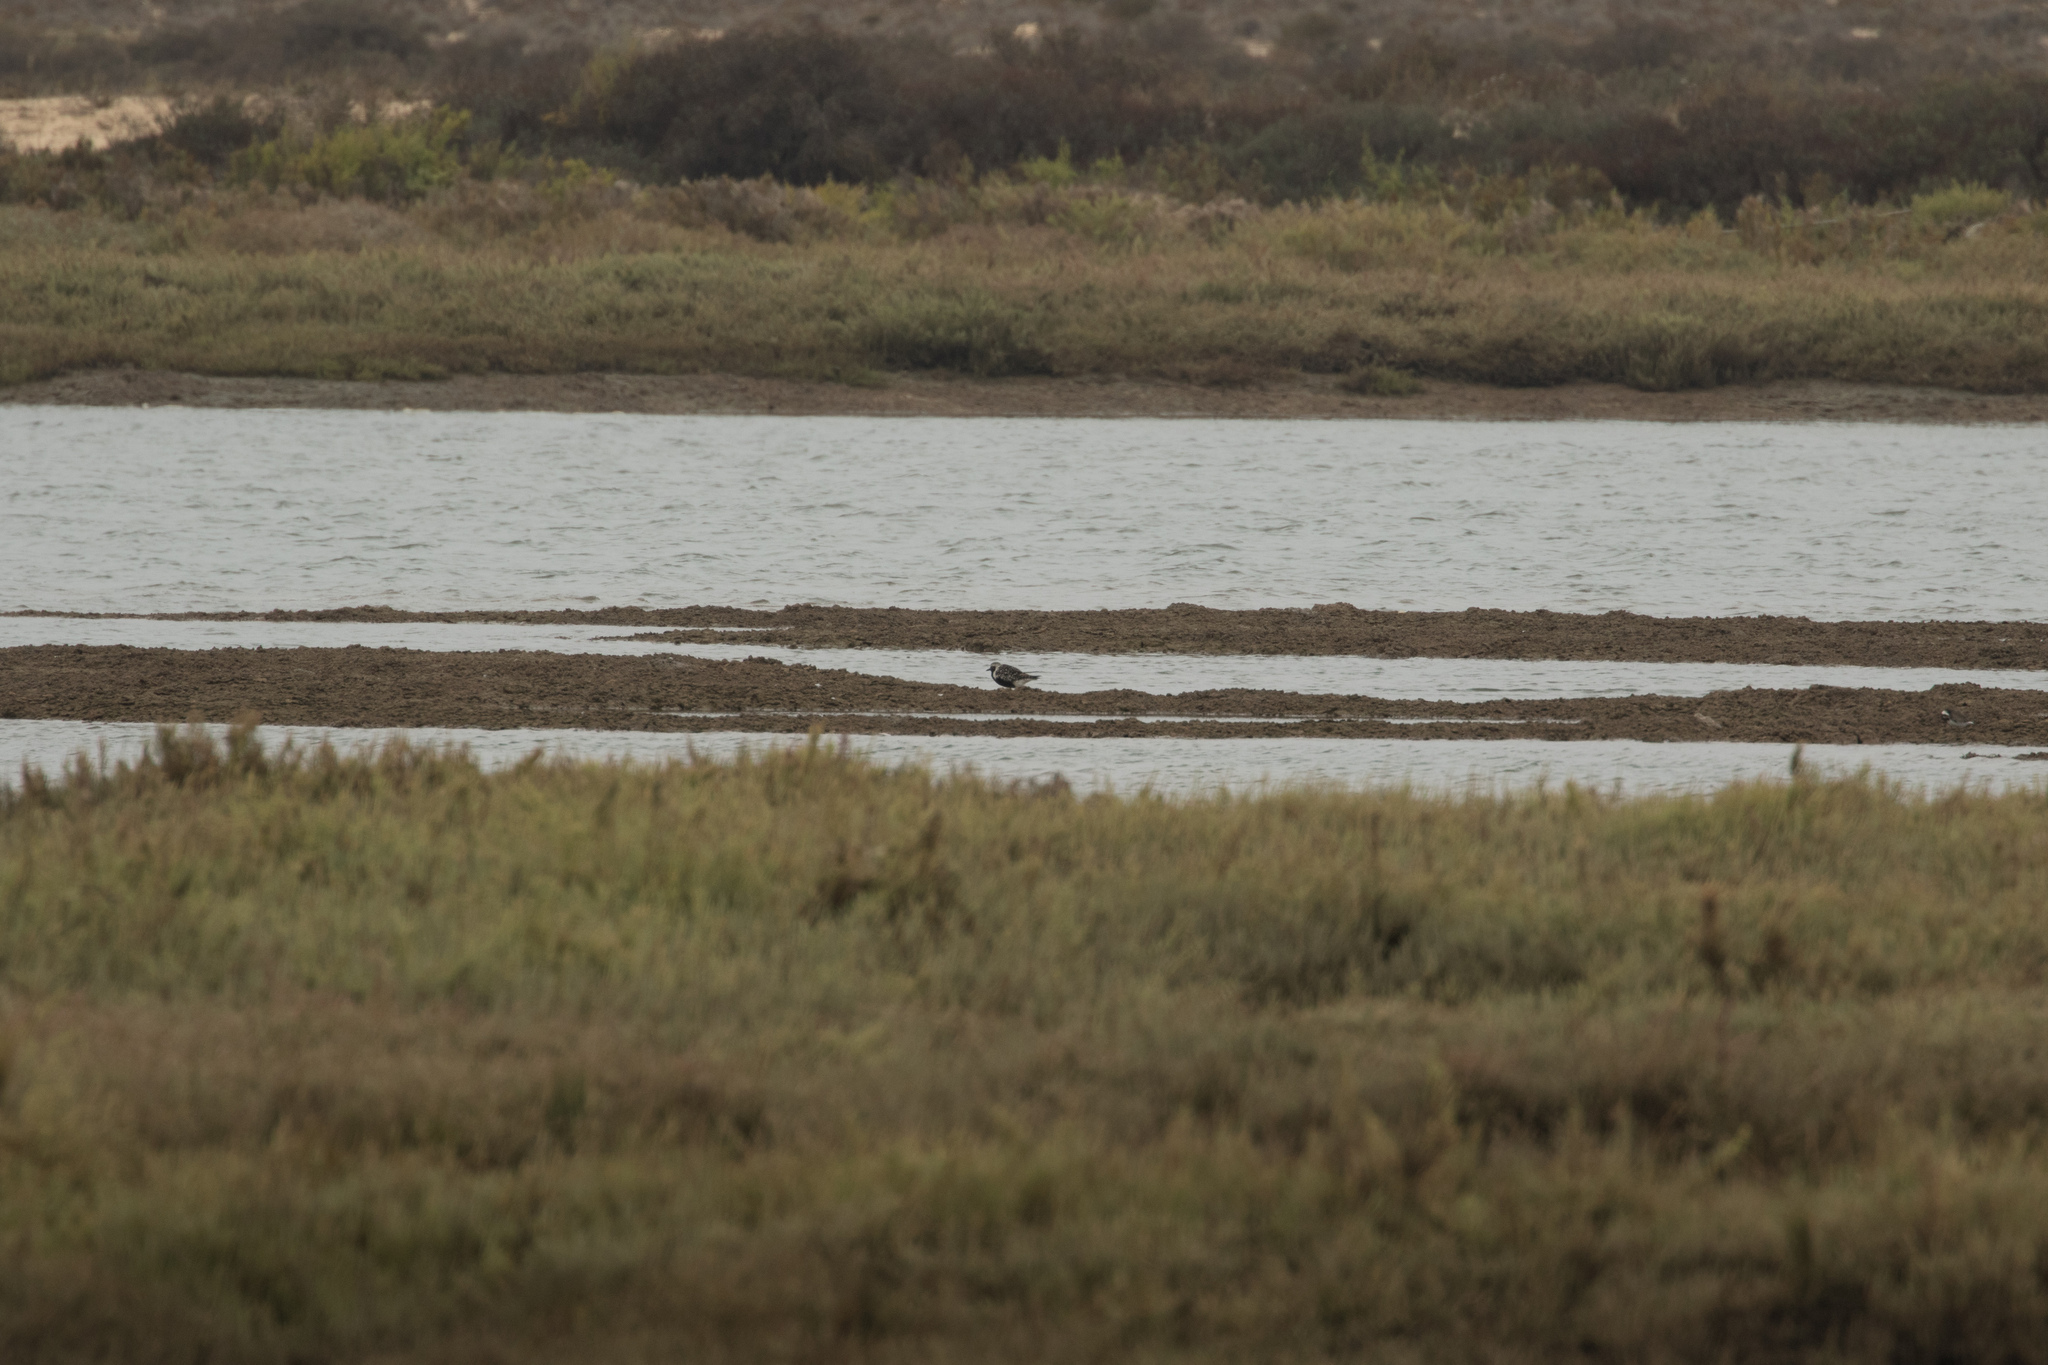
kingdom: Animalia
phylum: Chordata
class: Aves
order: Charadriiformes
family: Charadriidae
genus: Pluvialis
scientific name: Pluvialis squatarola
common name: Grey plover
